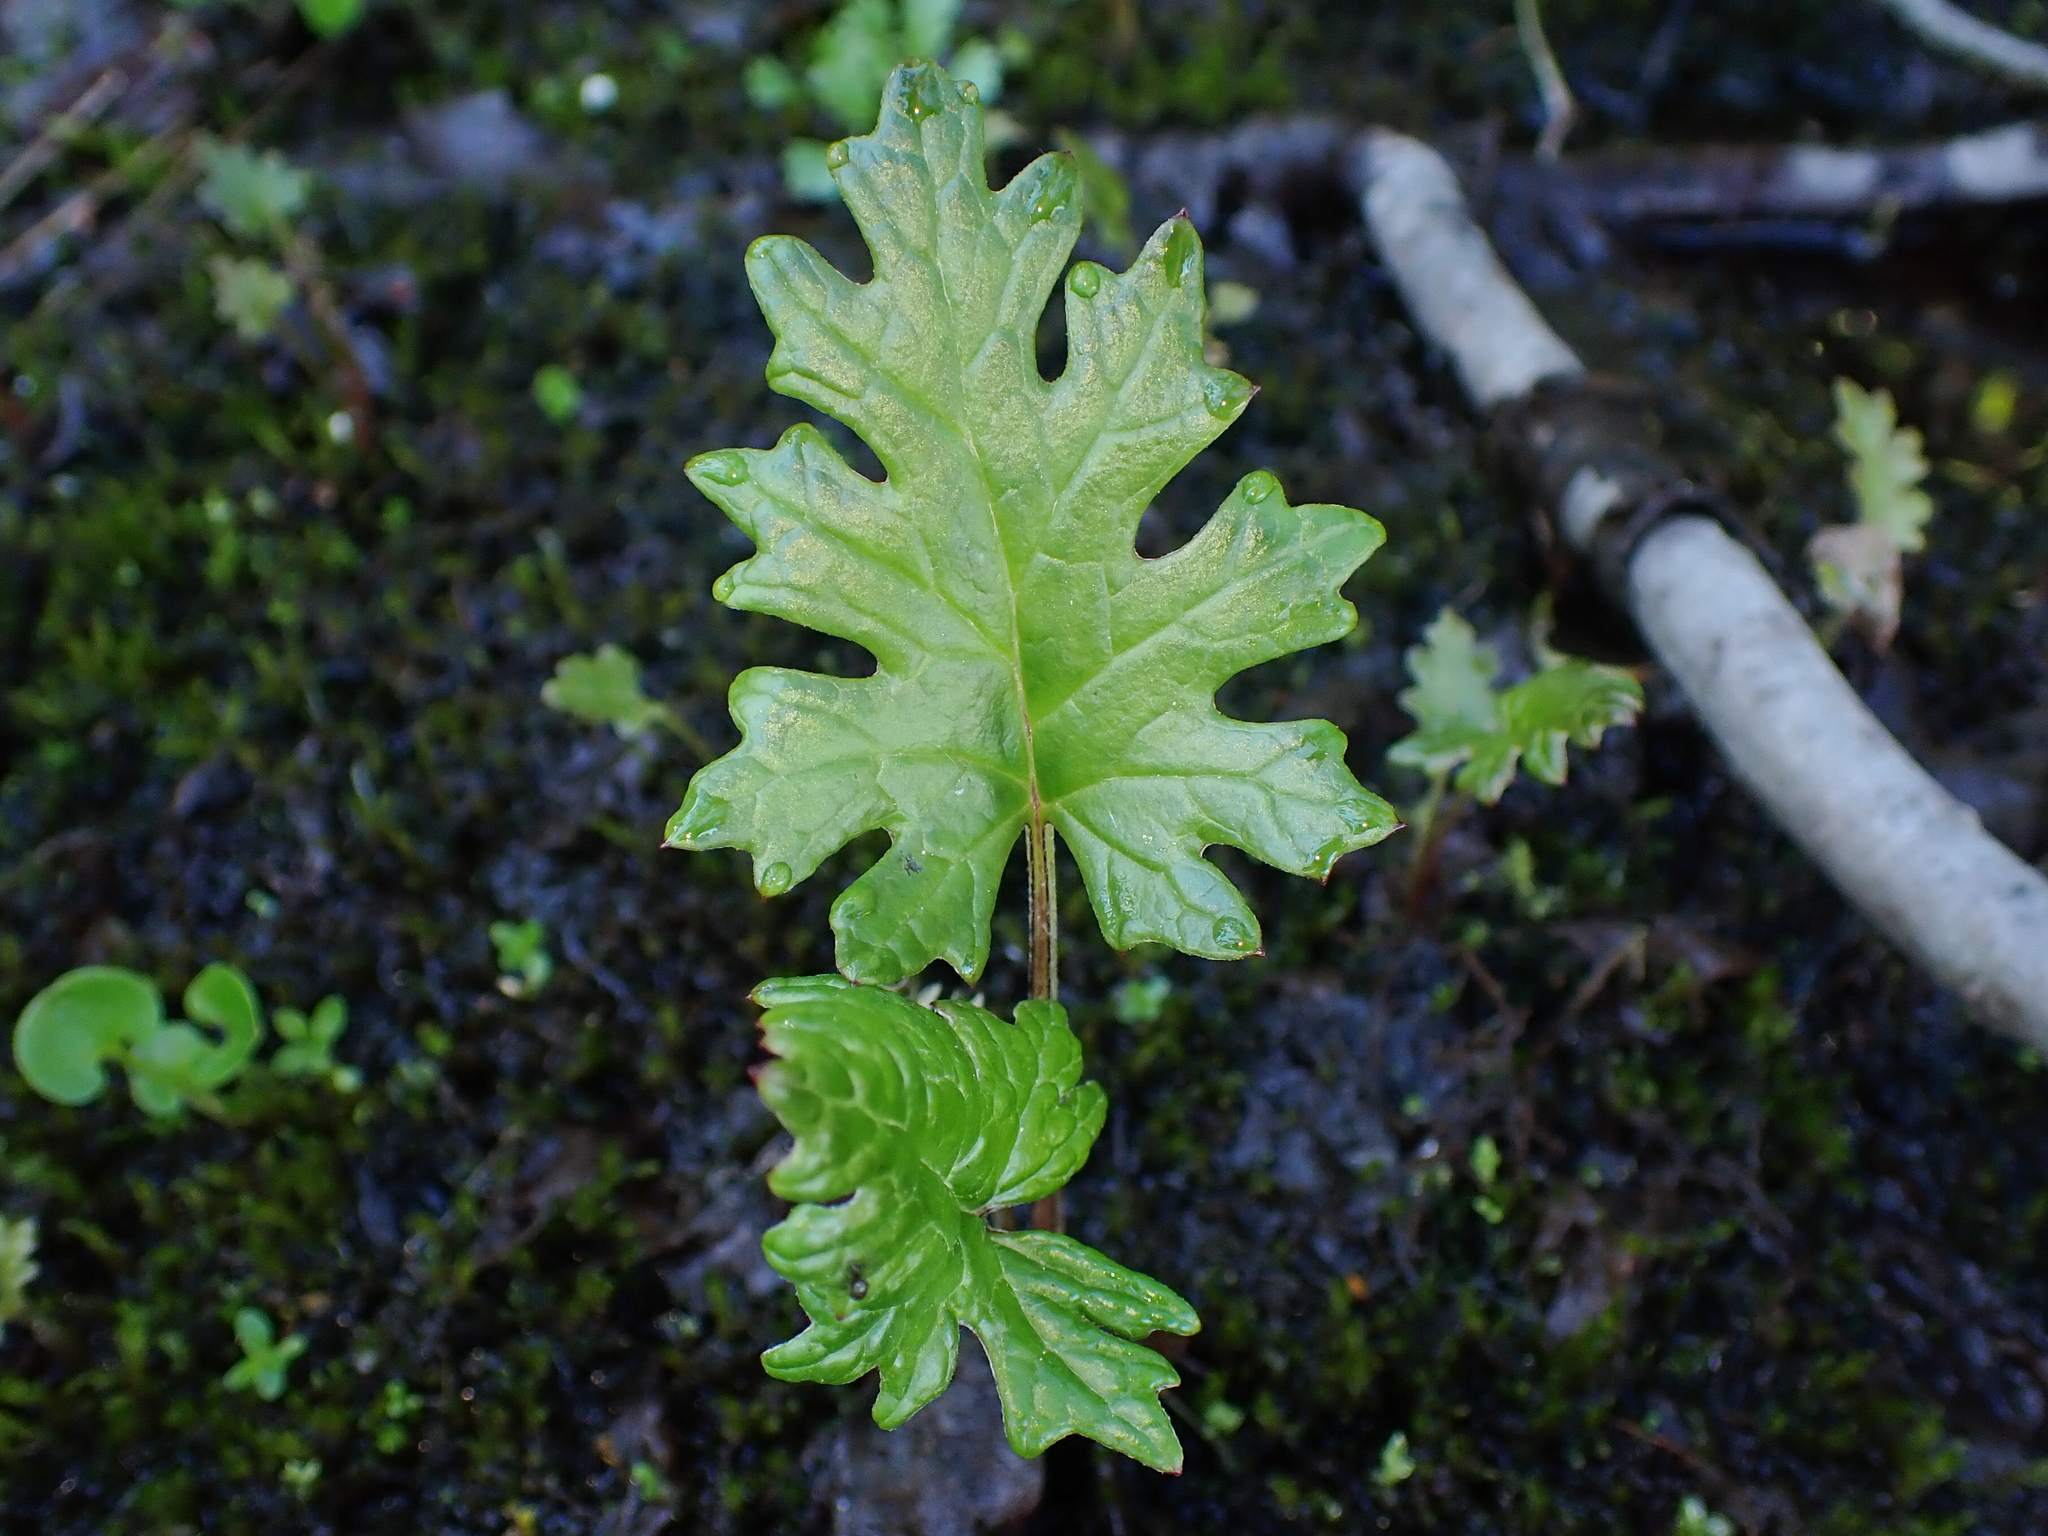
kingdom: Plantae
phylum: Tracheophyta
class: Magnoliopsida
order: Asterales
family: Asteraceae
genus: Petasites
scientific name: Petasites frigidus
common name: Arctic butterbur
